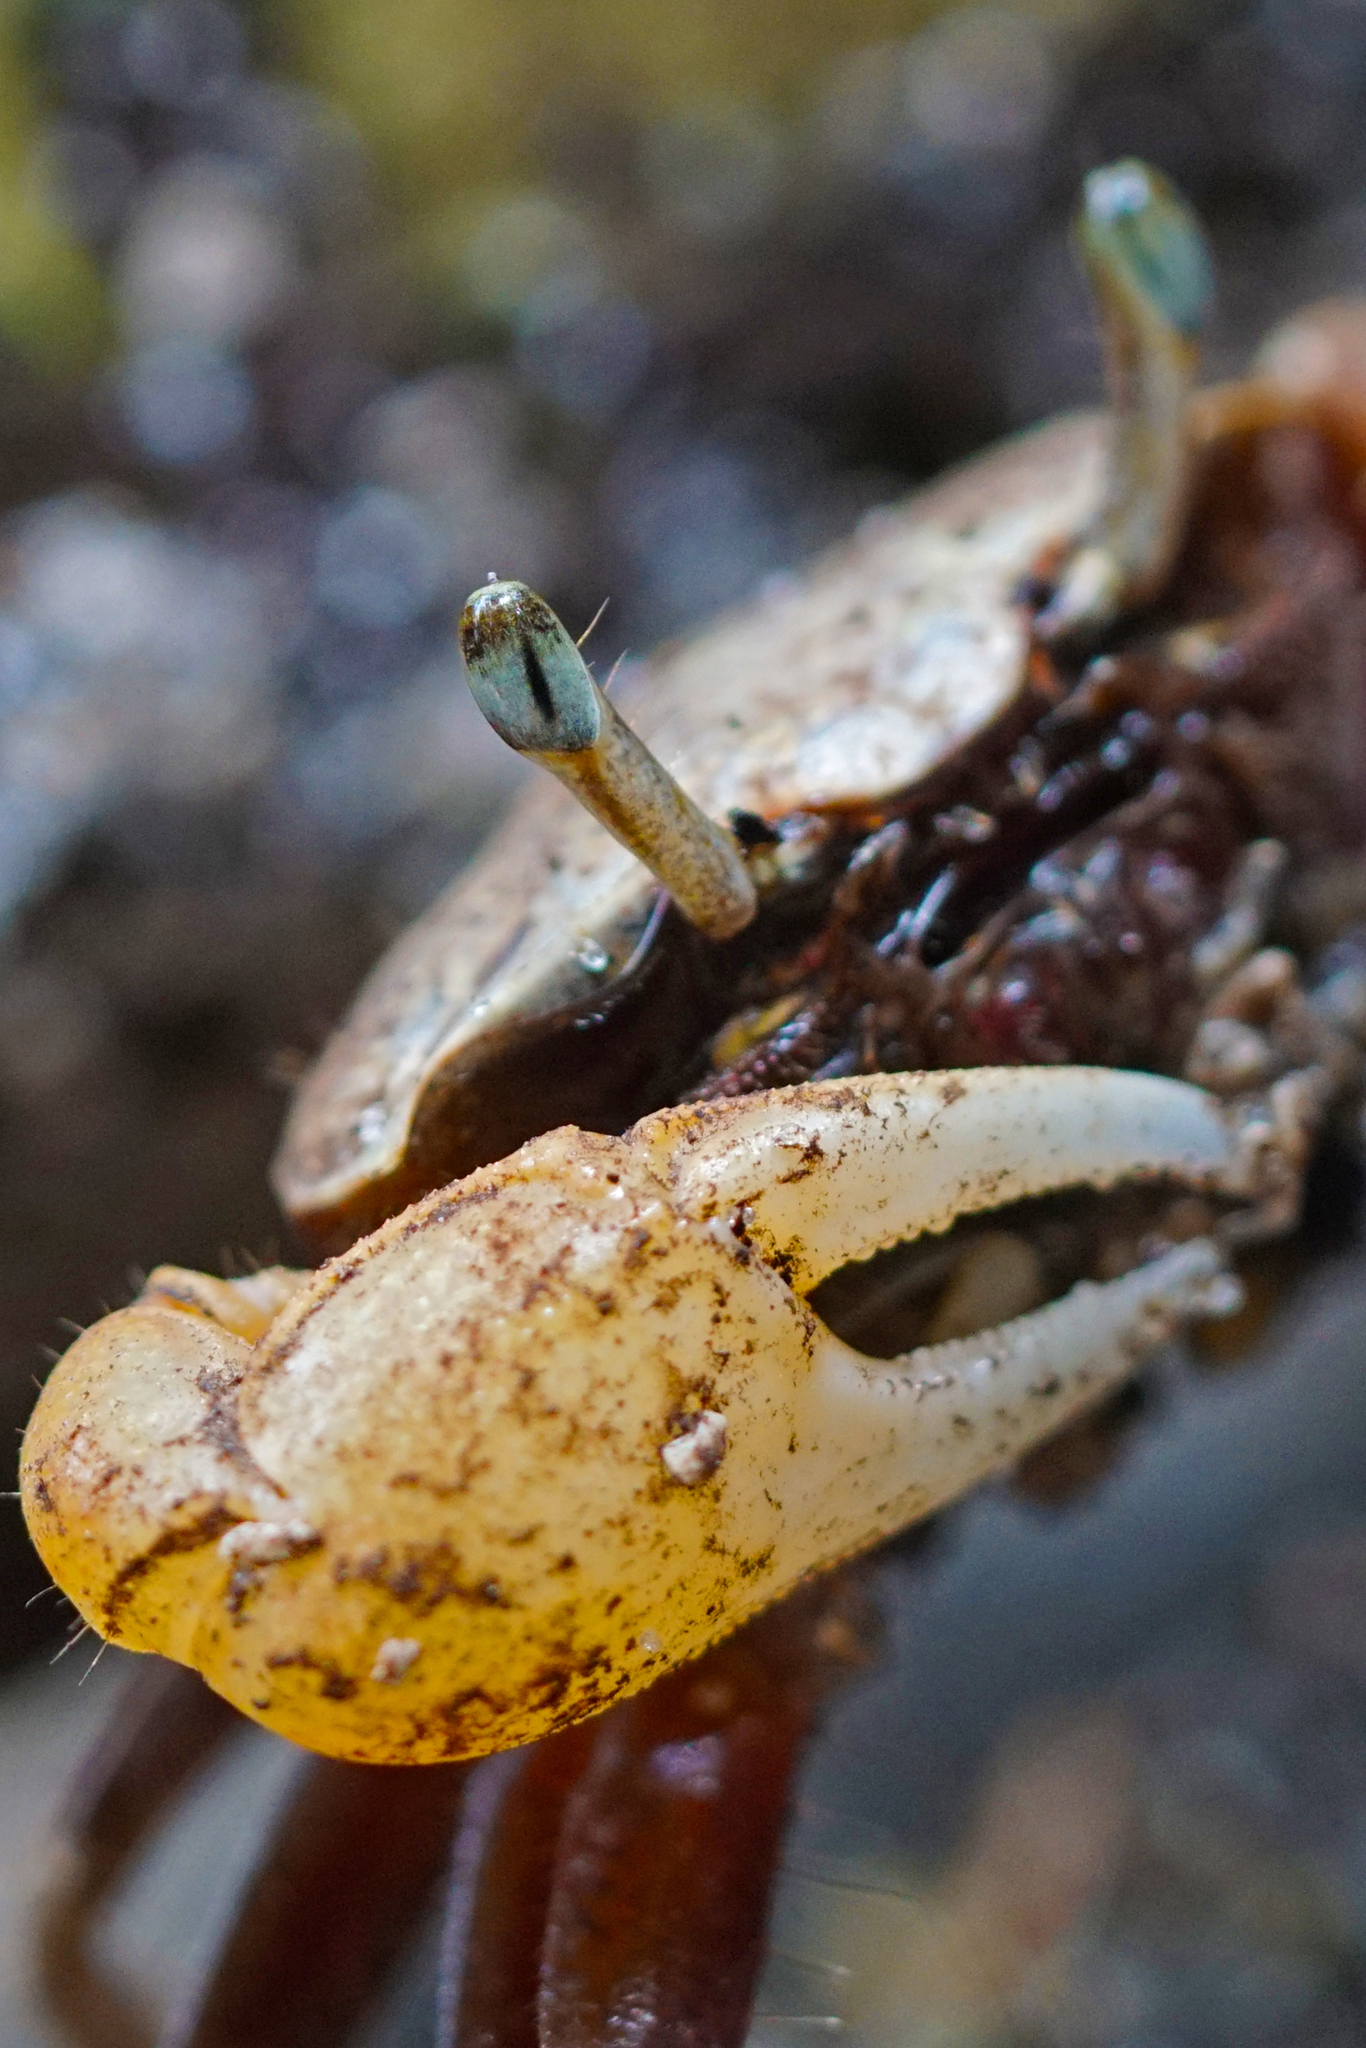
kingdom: Animalia
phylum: Arthropoda
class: Malacostraca
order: Decapoda
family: Ocypodidae
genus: Leptuca
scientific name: Leptuca pugilator
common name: Atlantic sand fiddler crab
